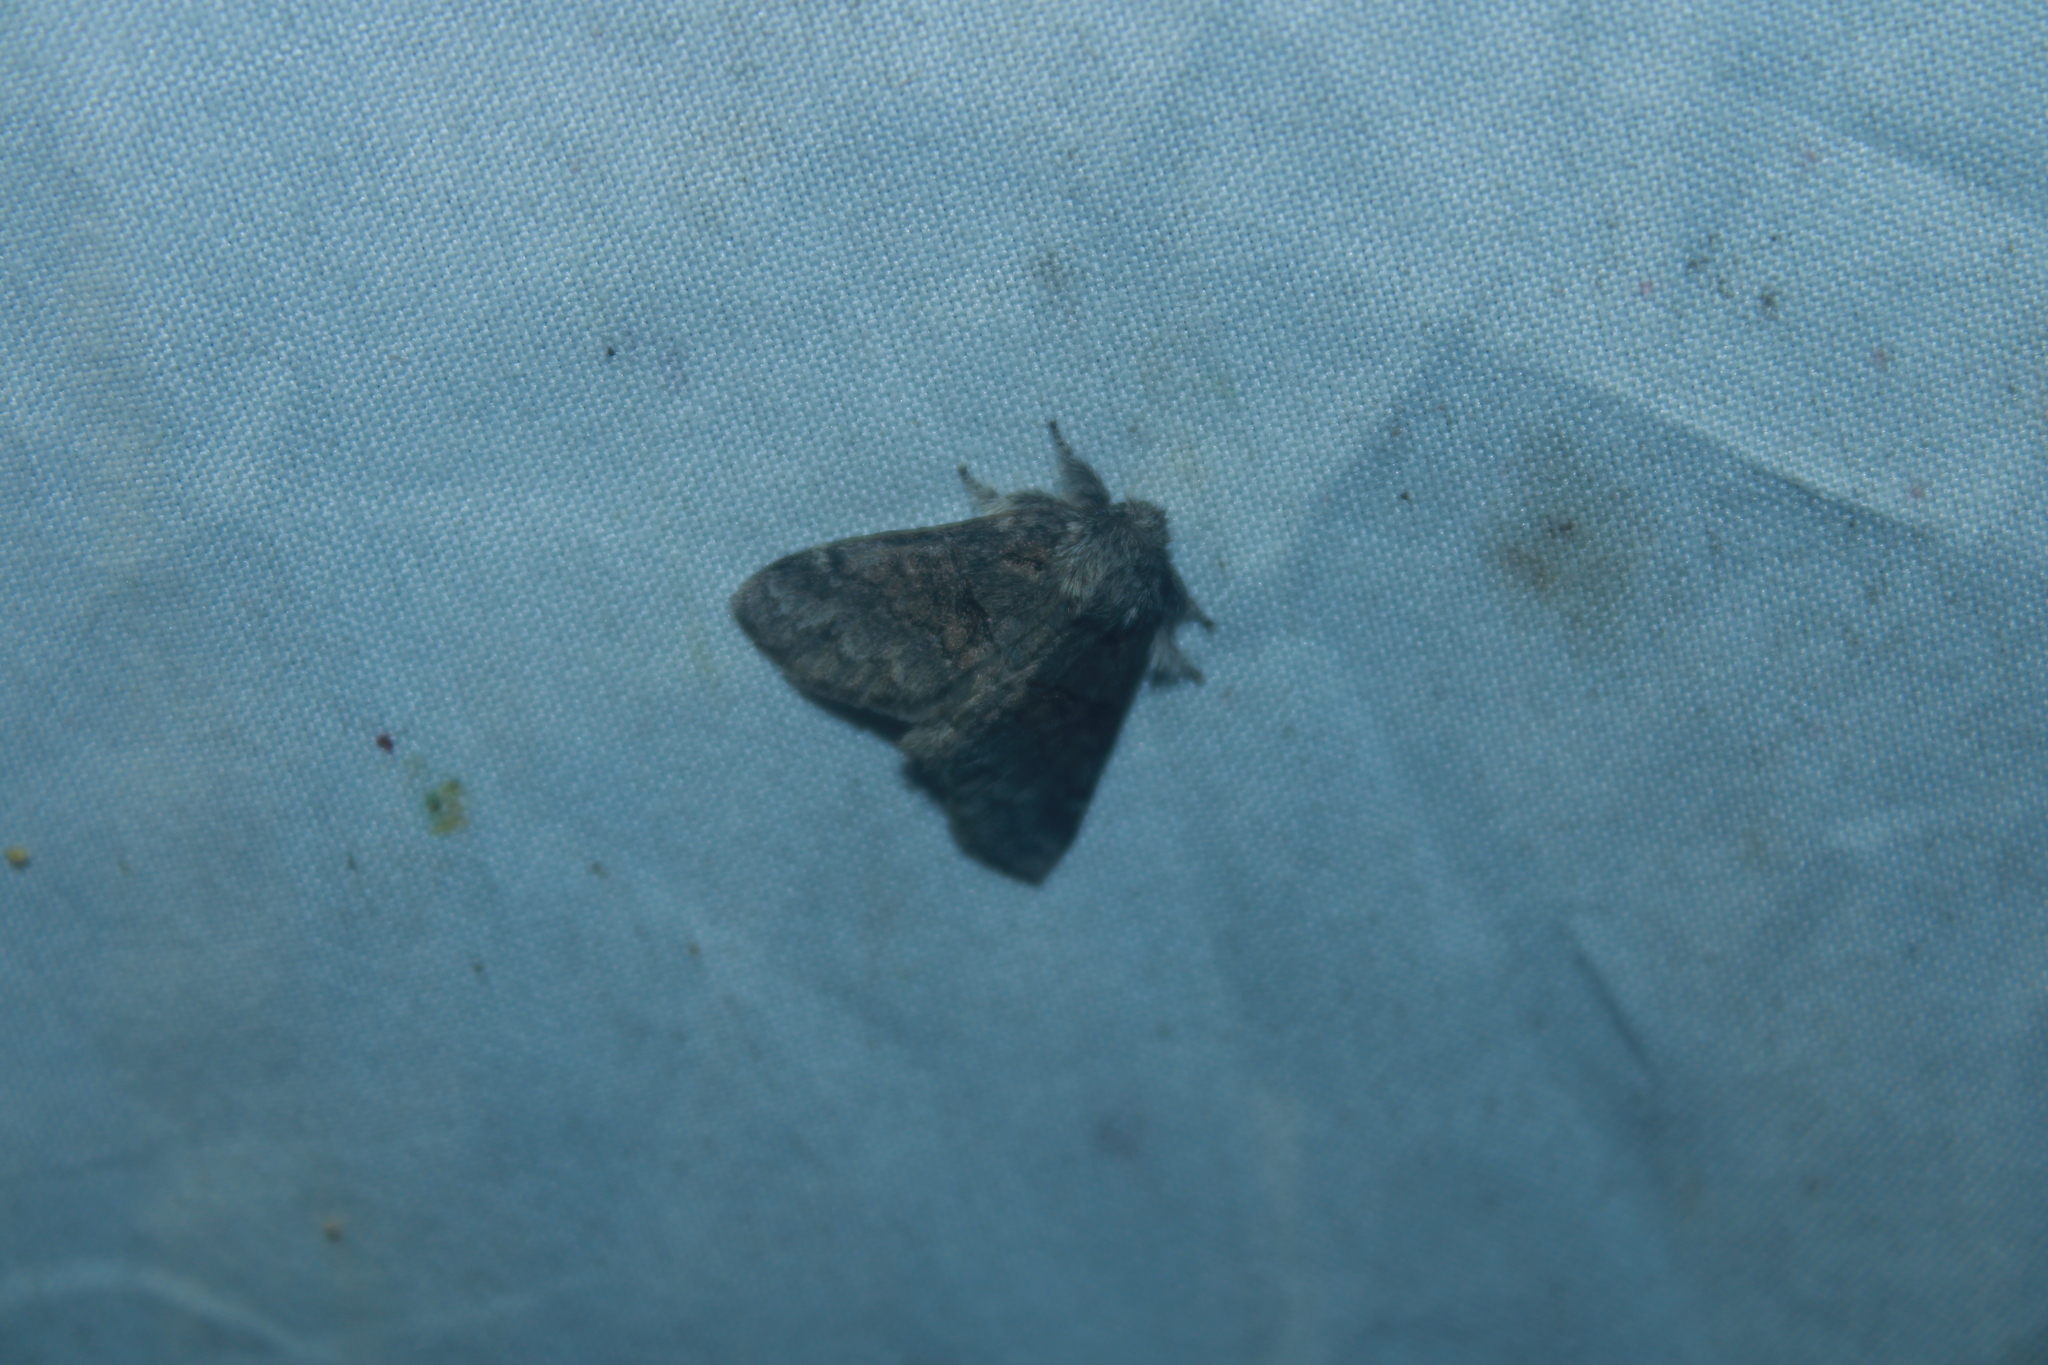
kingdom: Animalia
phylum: Arthropoda
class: Insecta
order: Lepidoptera
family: Notodontidae
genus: Gluphisia
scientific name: Gluphisia septentrionis
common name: Common gluphisia
